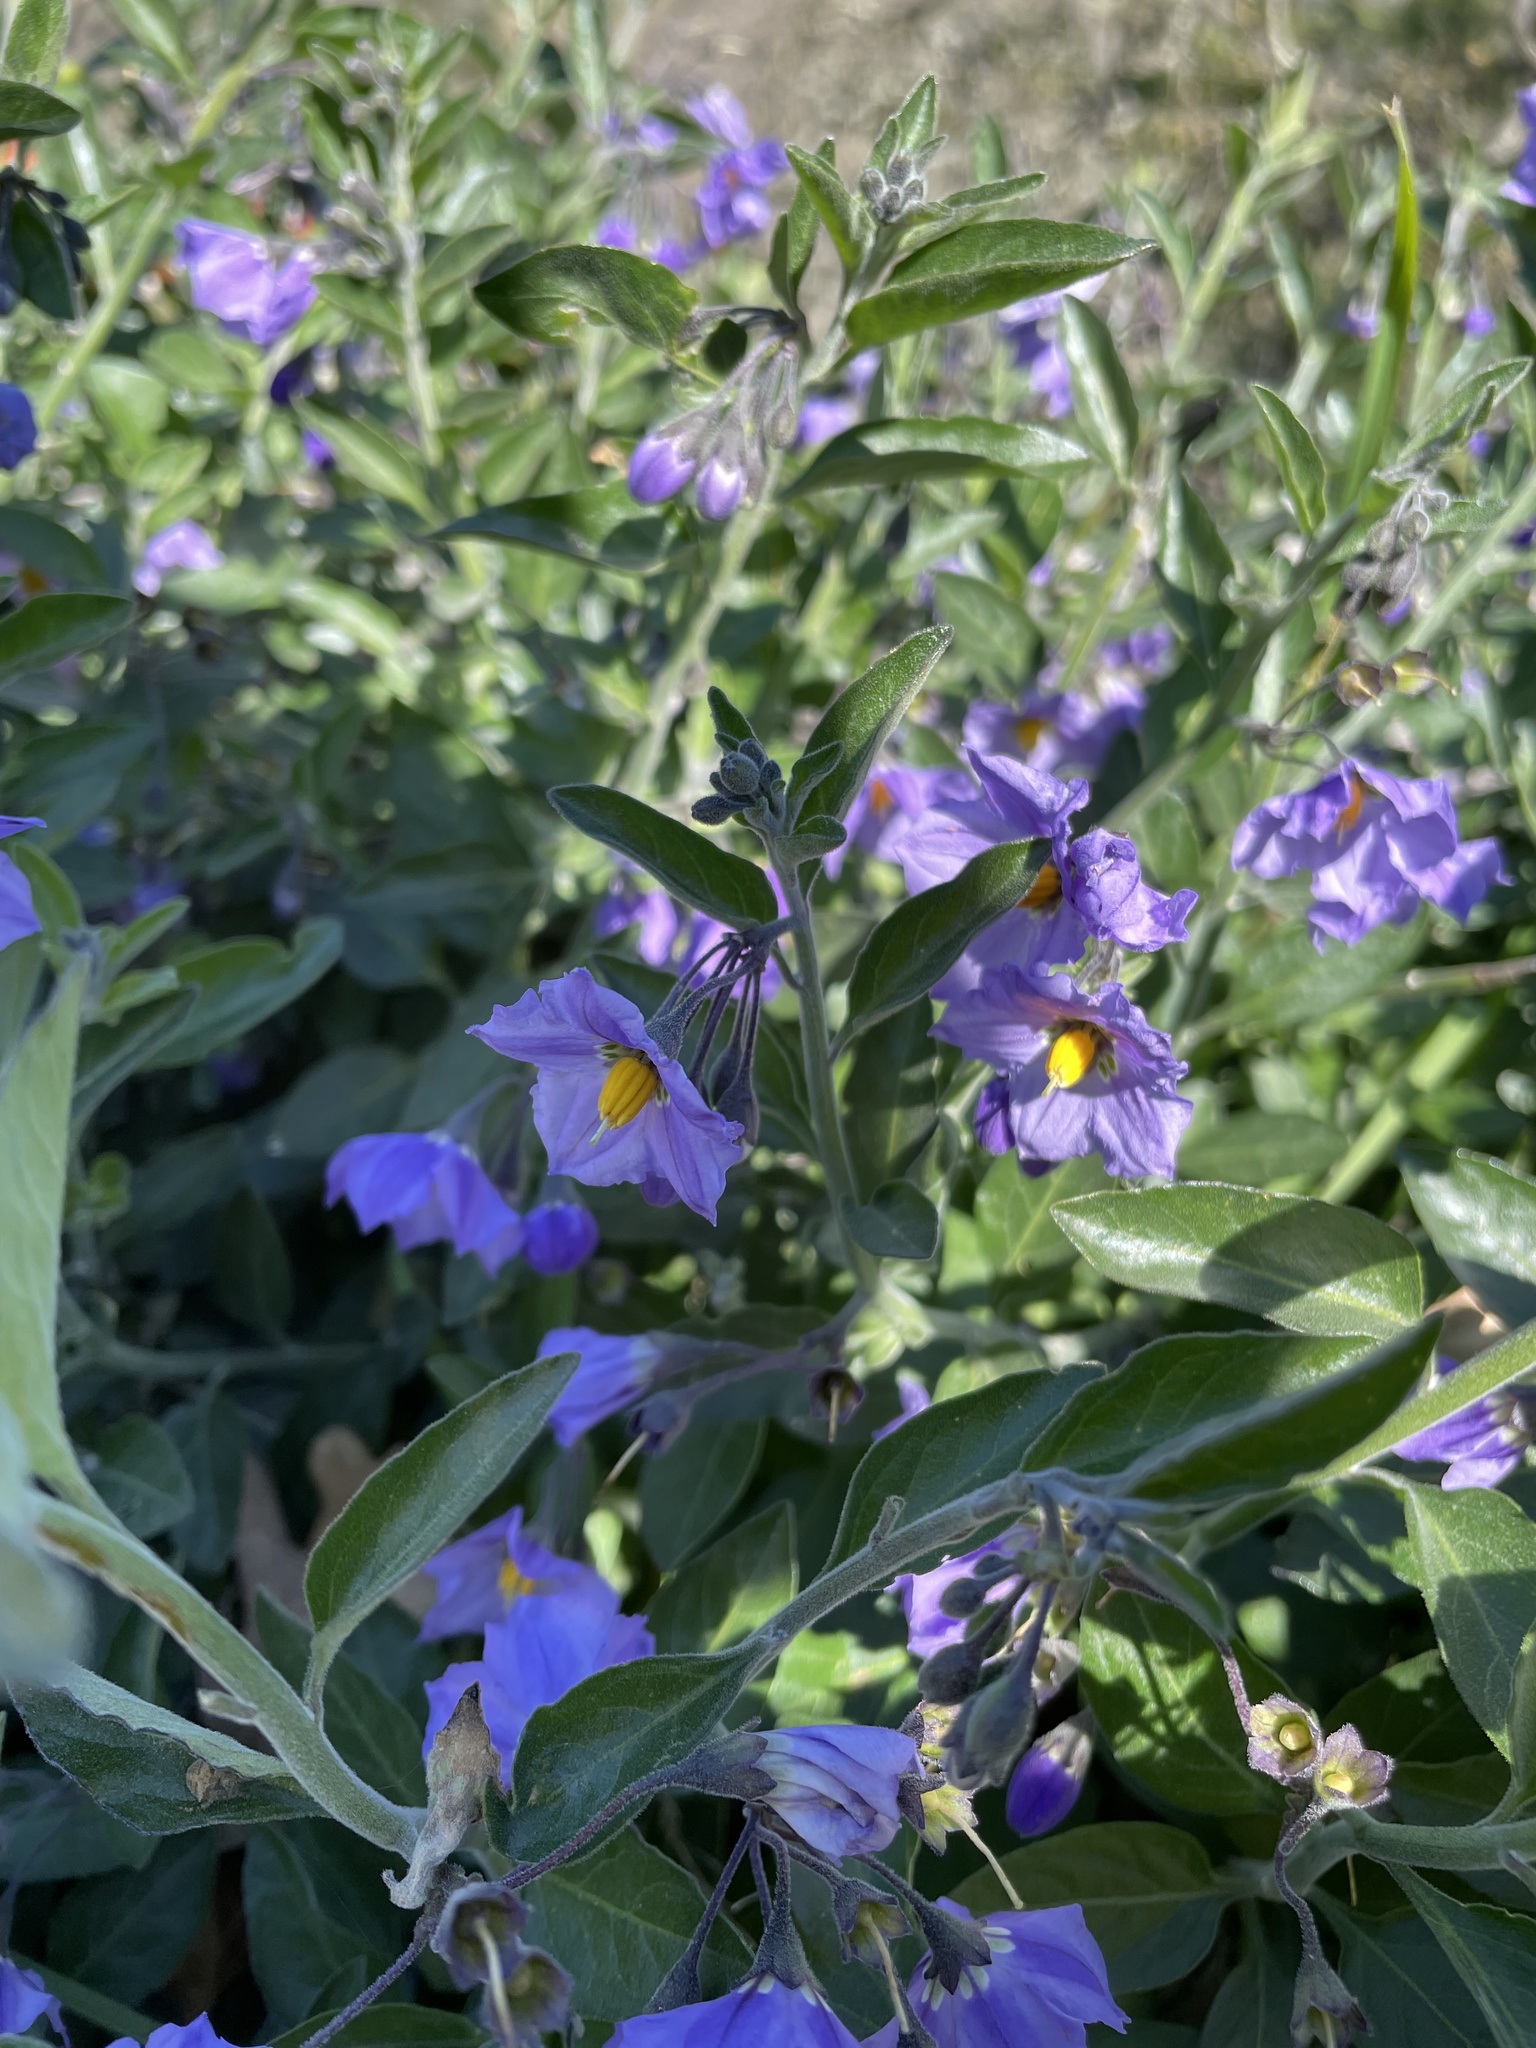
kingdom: Plantae
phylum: Tracheophyta
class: Magnoliopsida
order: Solanales
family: Solanaceae
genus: Solanum
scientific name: Solanum umbelliferum
